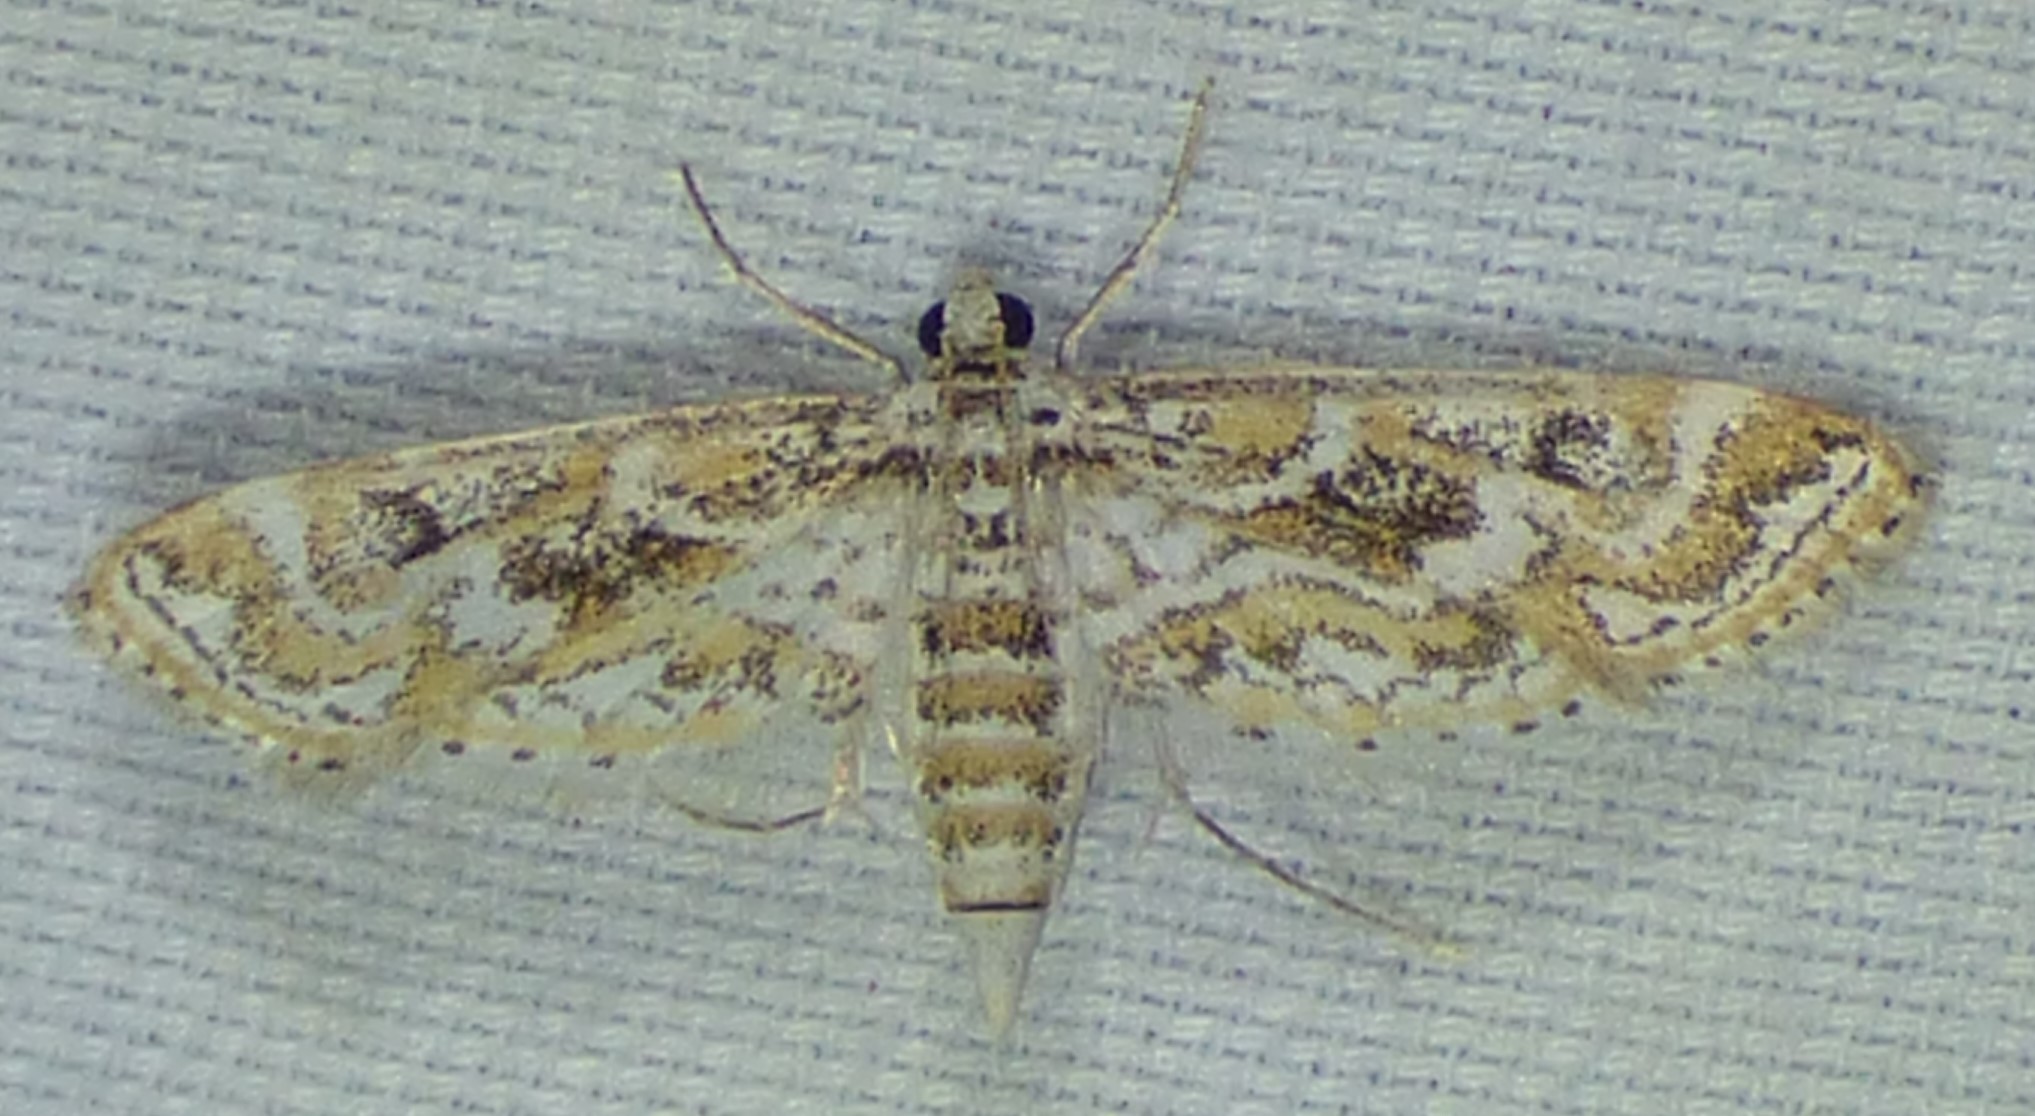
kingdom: Animalia
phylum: Arthropoda
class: Insecta
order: Lepidoptera
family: Crambidae
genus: Parapoynx
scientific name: Parapoynx diminutalis
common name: Hydrilla leafcutter
